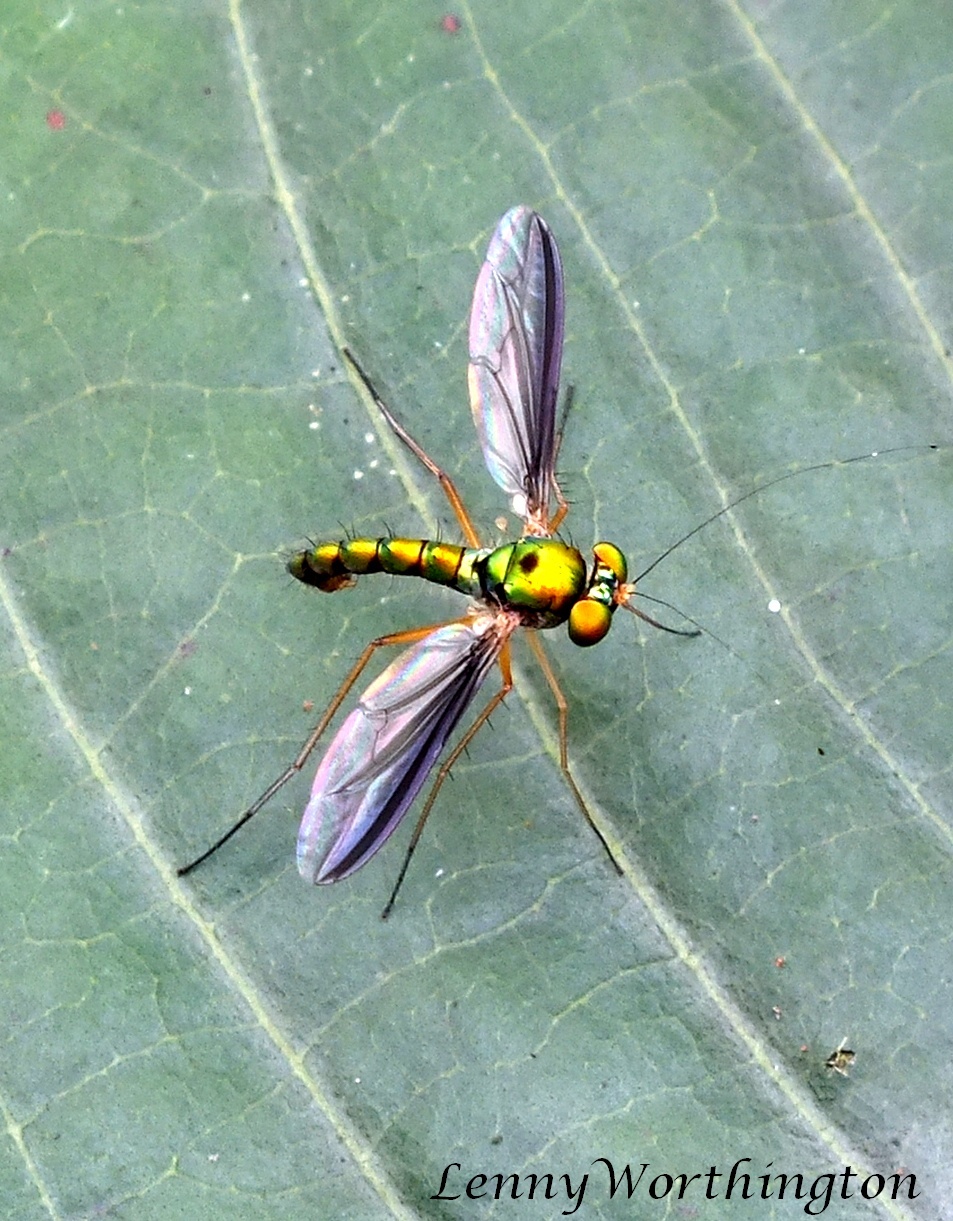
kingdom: Animalia
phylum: Arthropoda
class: Insecta
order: Diptera
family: Dolichopodidae
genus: Plagiozopelma
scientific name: Plagiozopelma biseta
